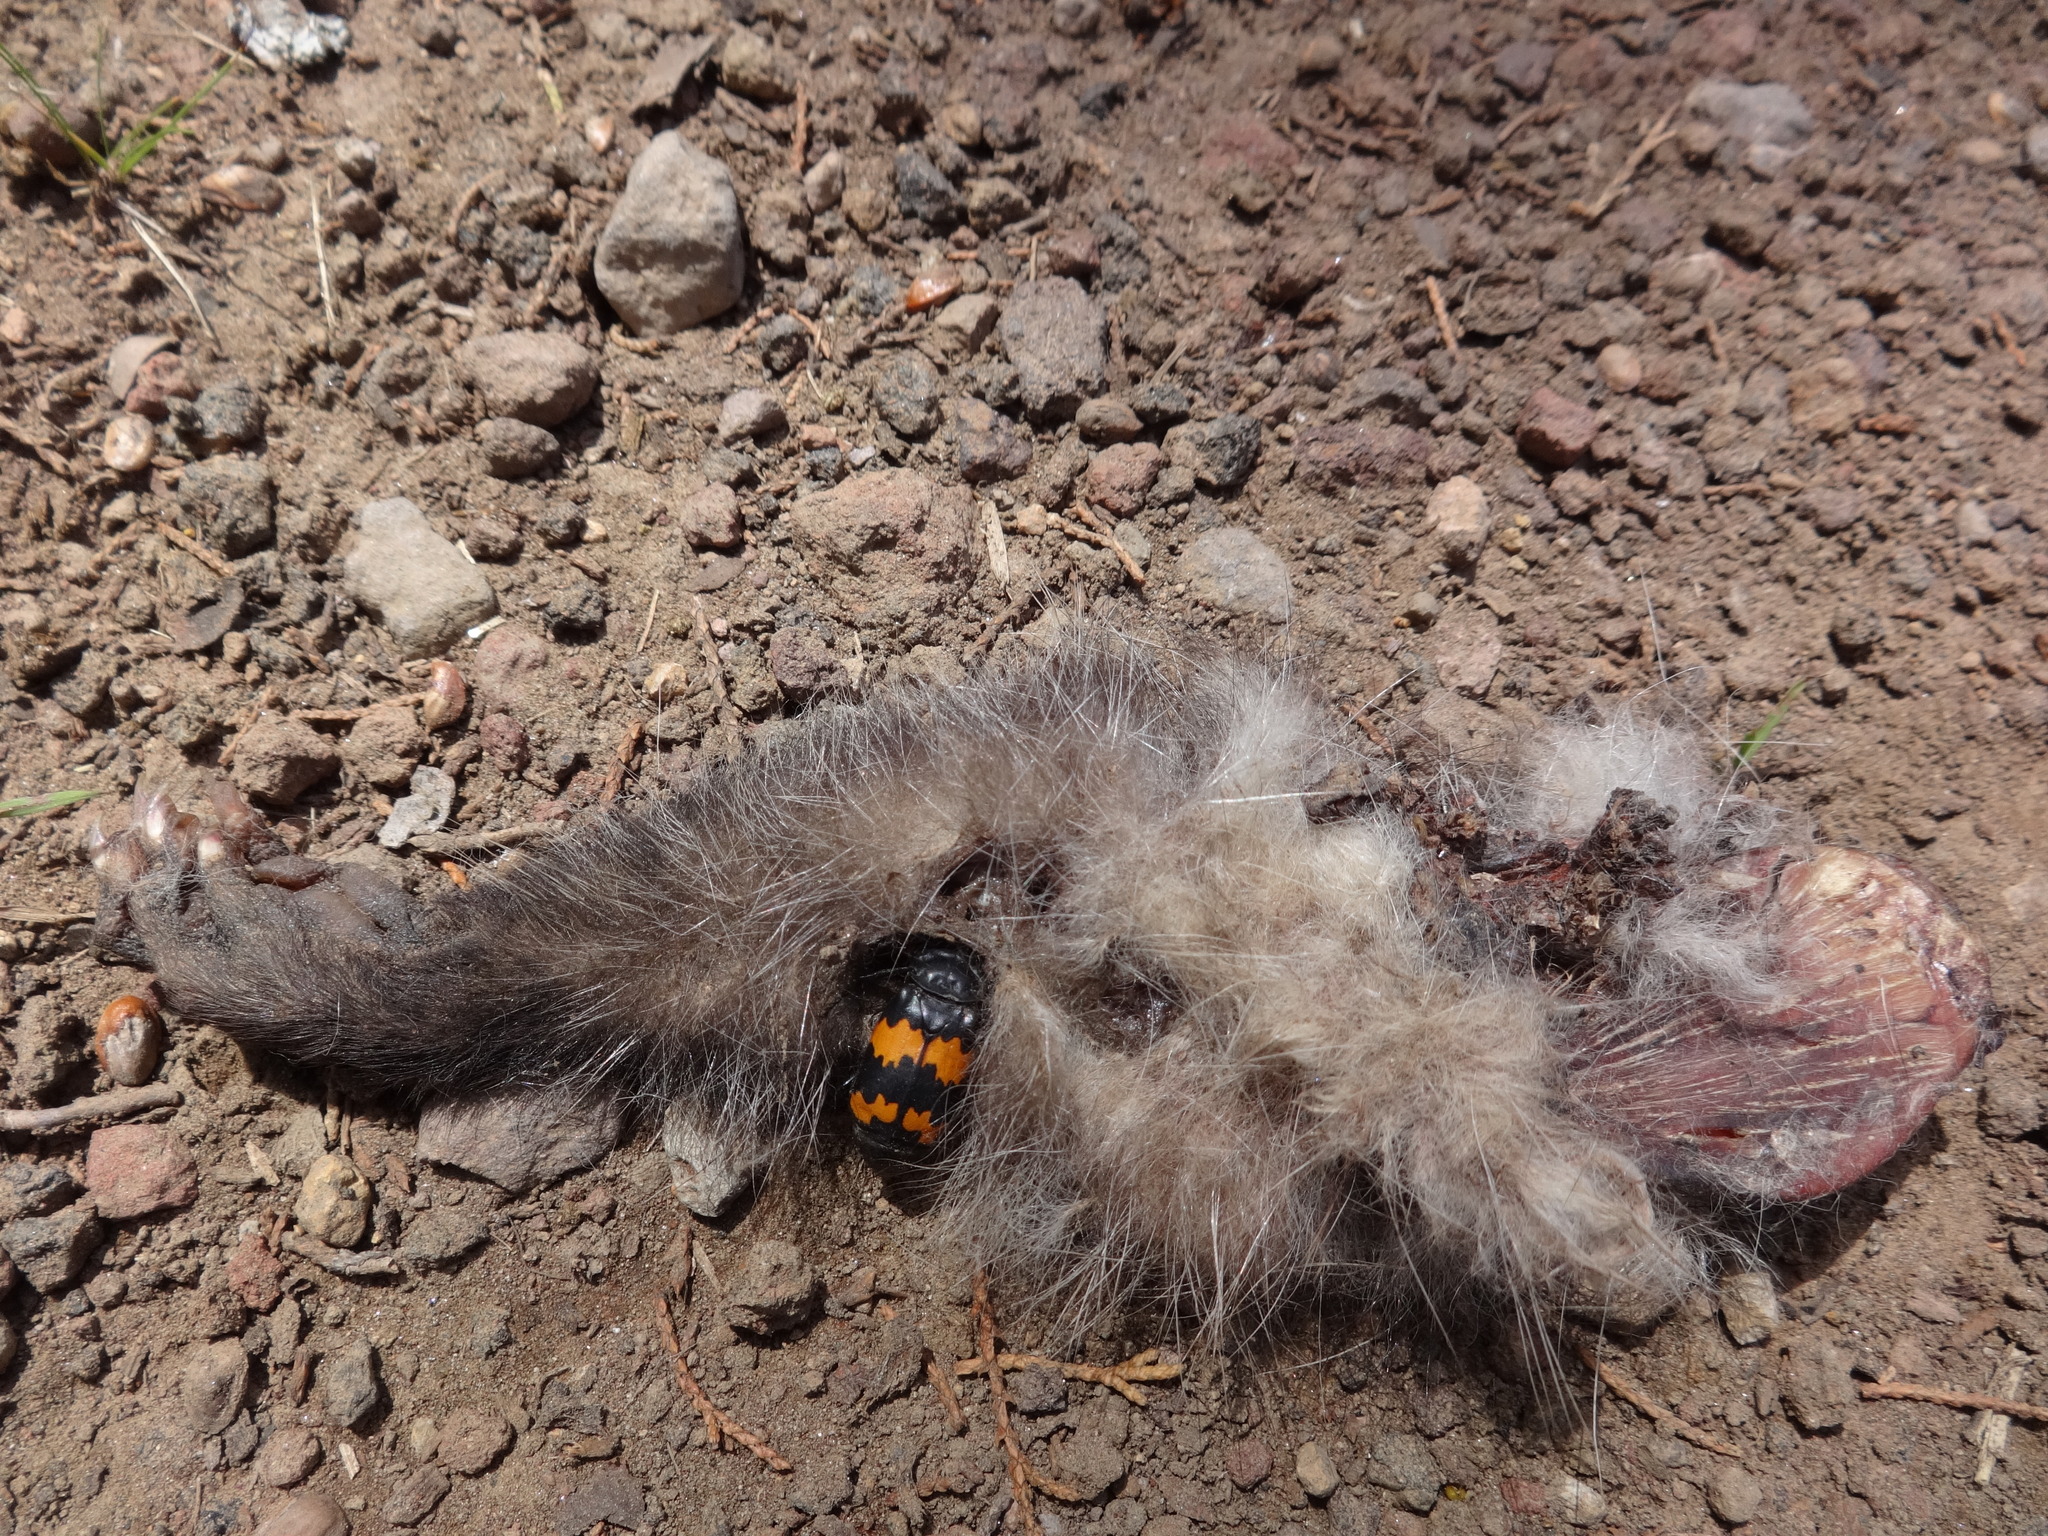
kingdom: Animalia
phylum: Arthropoda
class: Insecta
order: Coleoptera
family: Staphylinidae
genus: Nicrophorus
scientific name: Nicrophorus mexicanus
